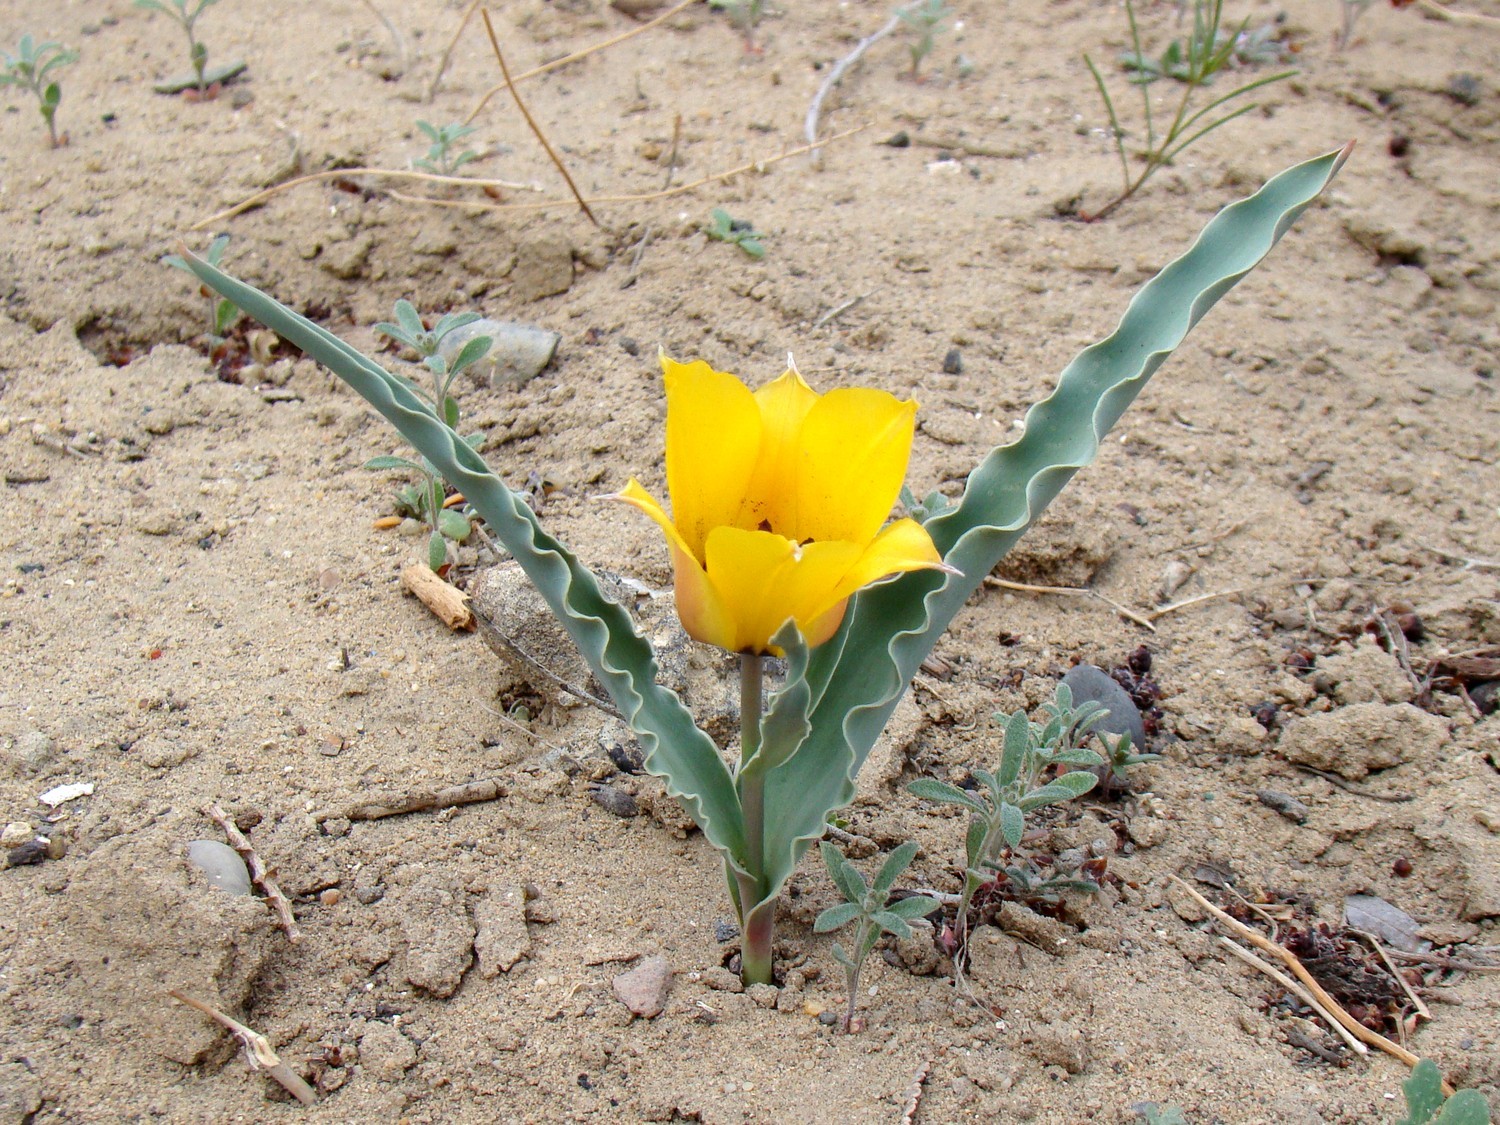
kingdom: Plantae
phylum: Tracheophyta
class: Liliopsida
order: Liliales
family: Liliaceae
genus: Tulipa
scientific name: Tulipa borszczowii
